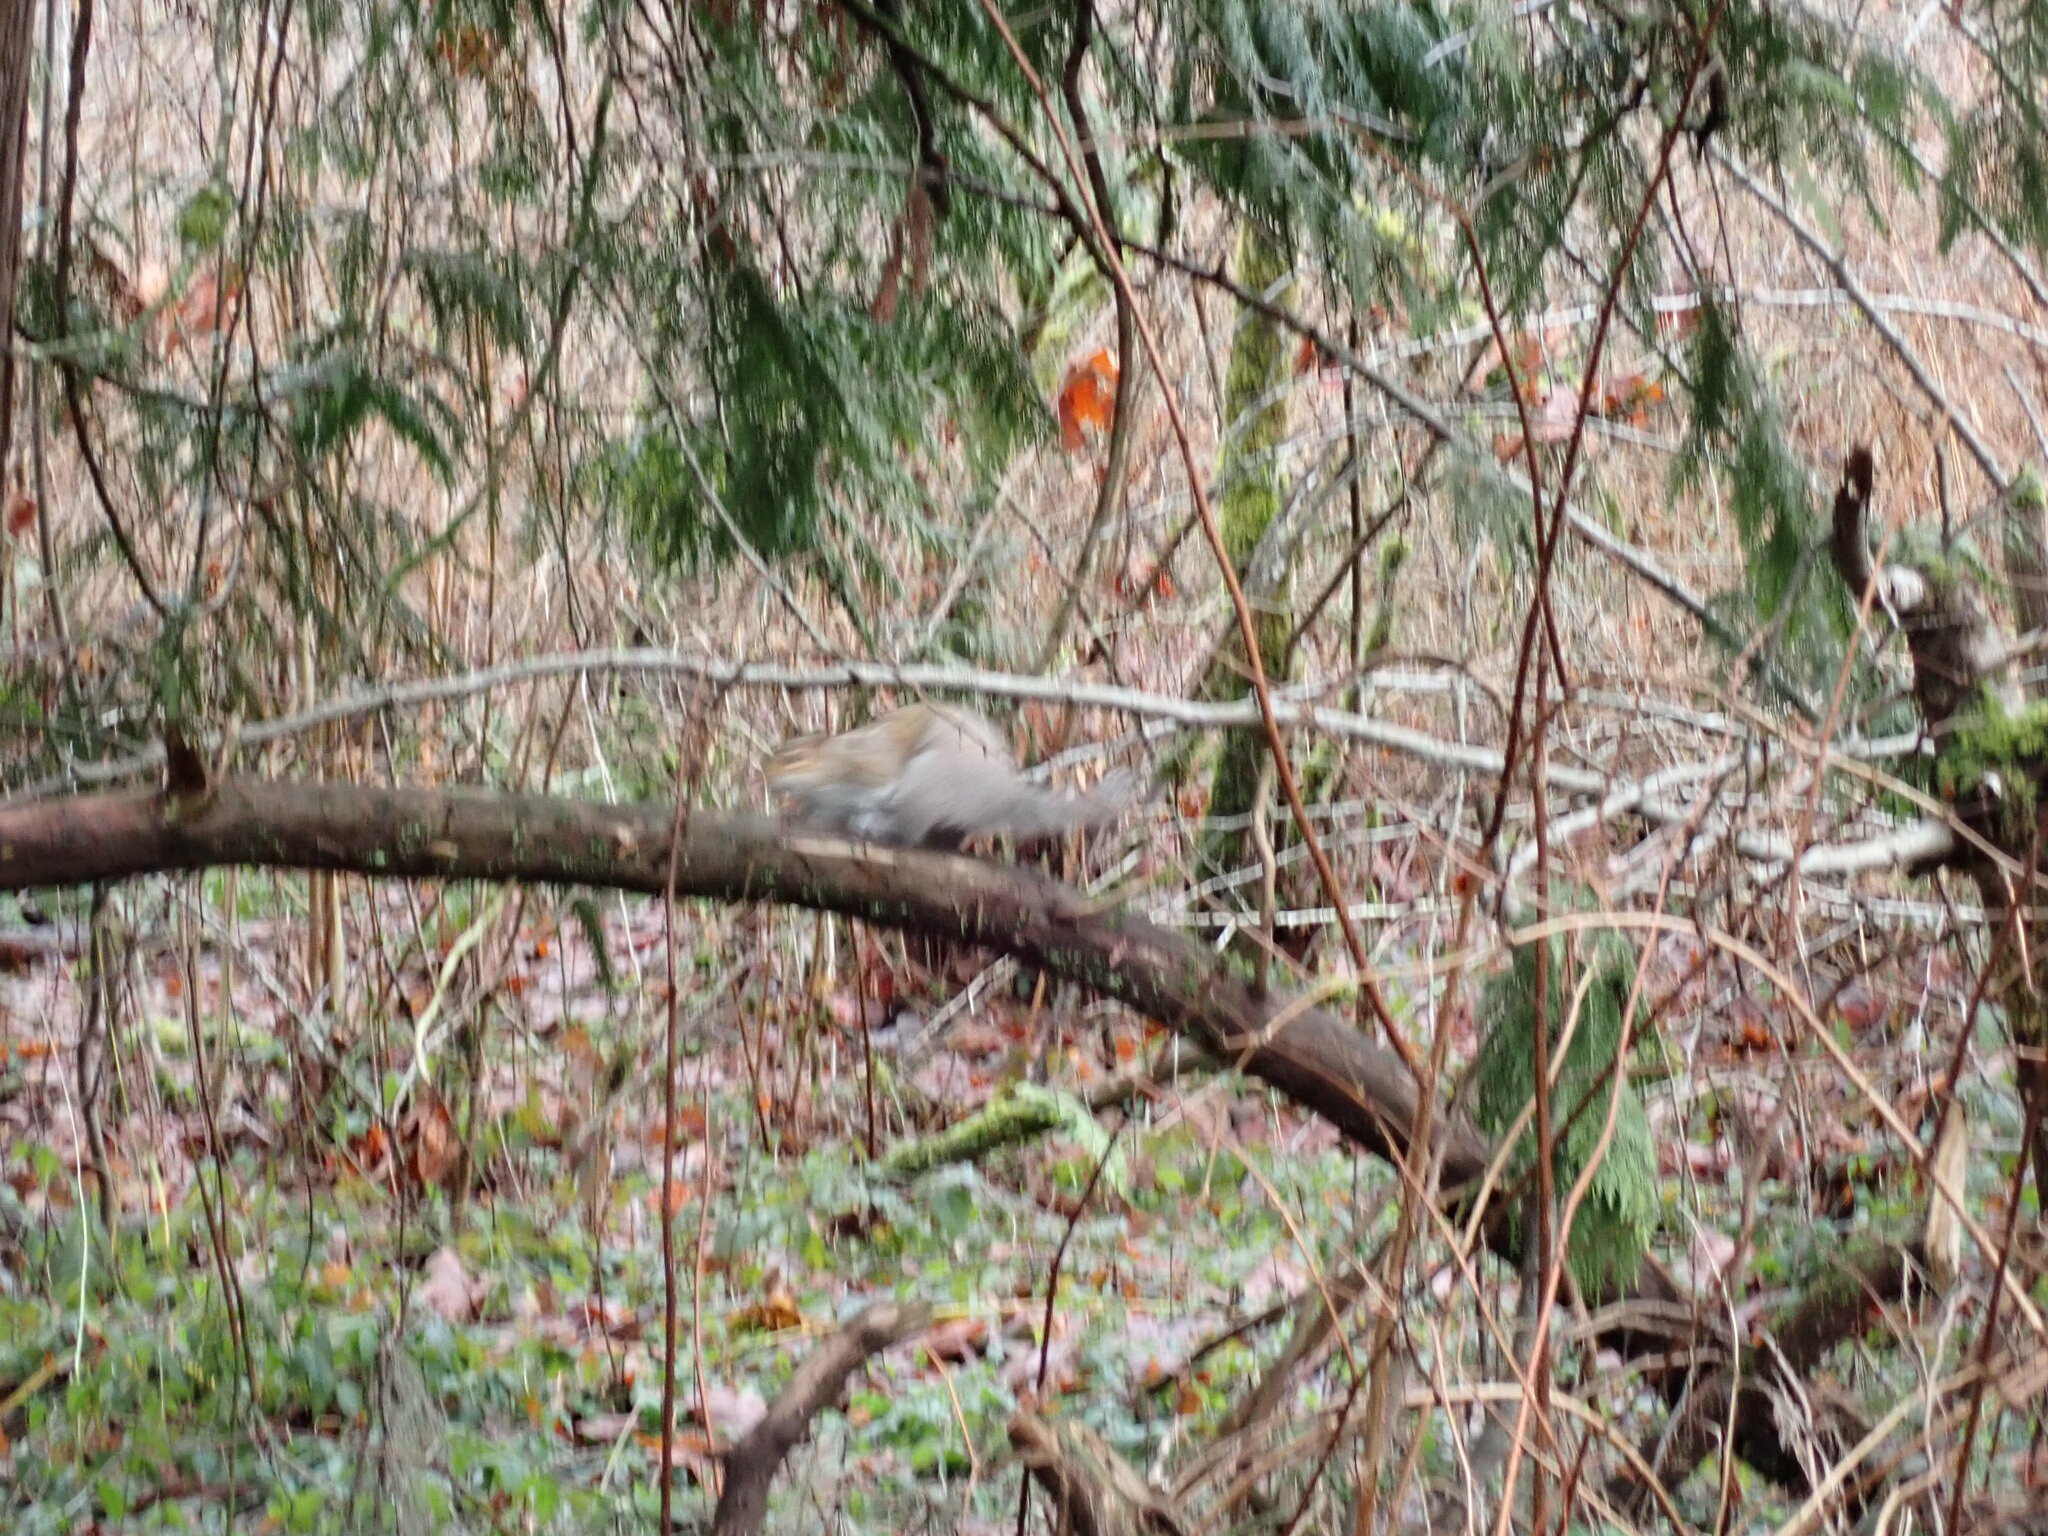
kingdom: Animalia
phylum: Chordata
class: Mammalia
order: Rodentia
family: Sciuridae
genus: Sciurus
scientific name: Sciurus carolinensis
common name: Eastern gray squirrel
